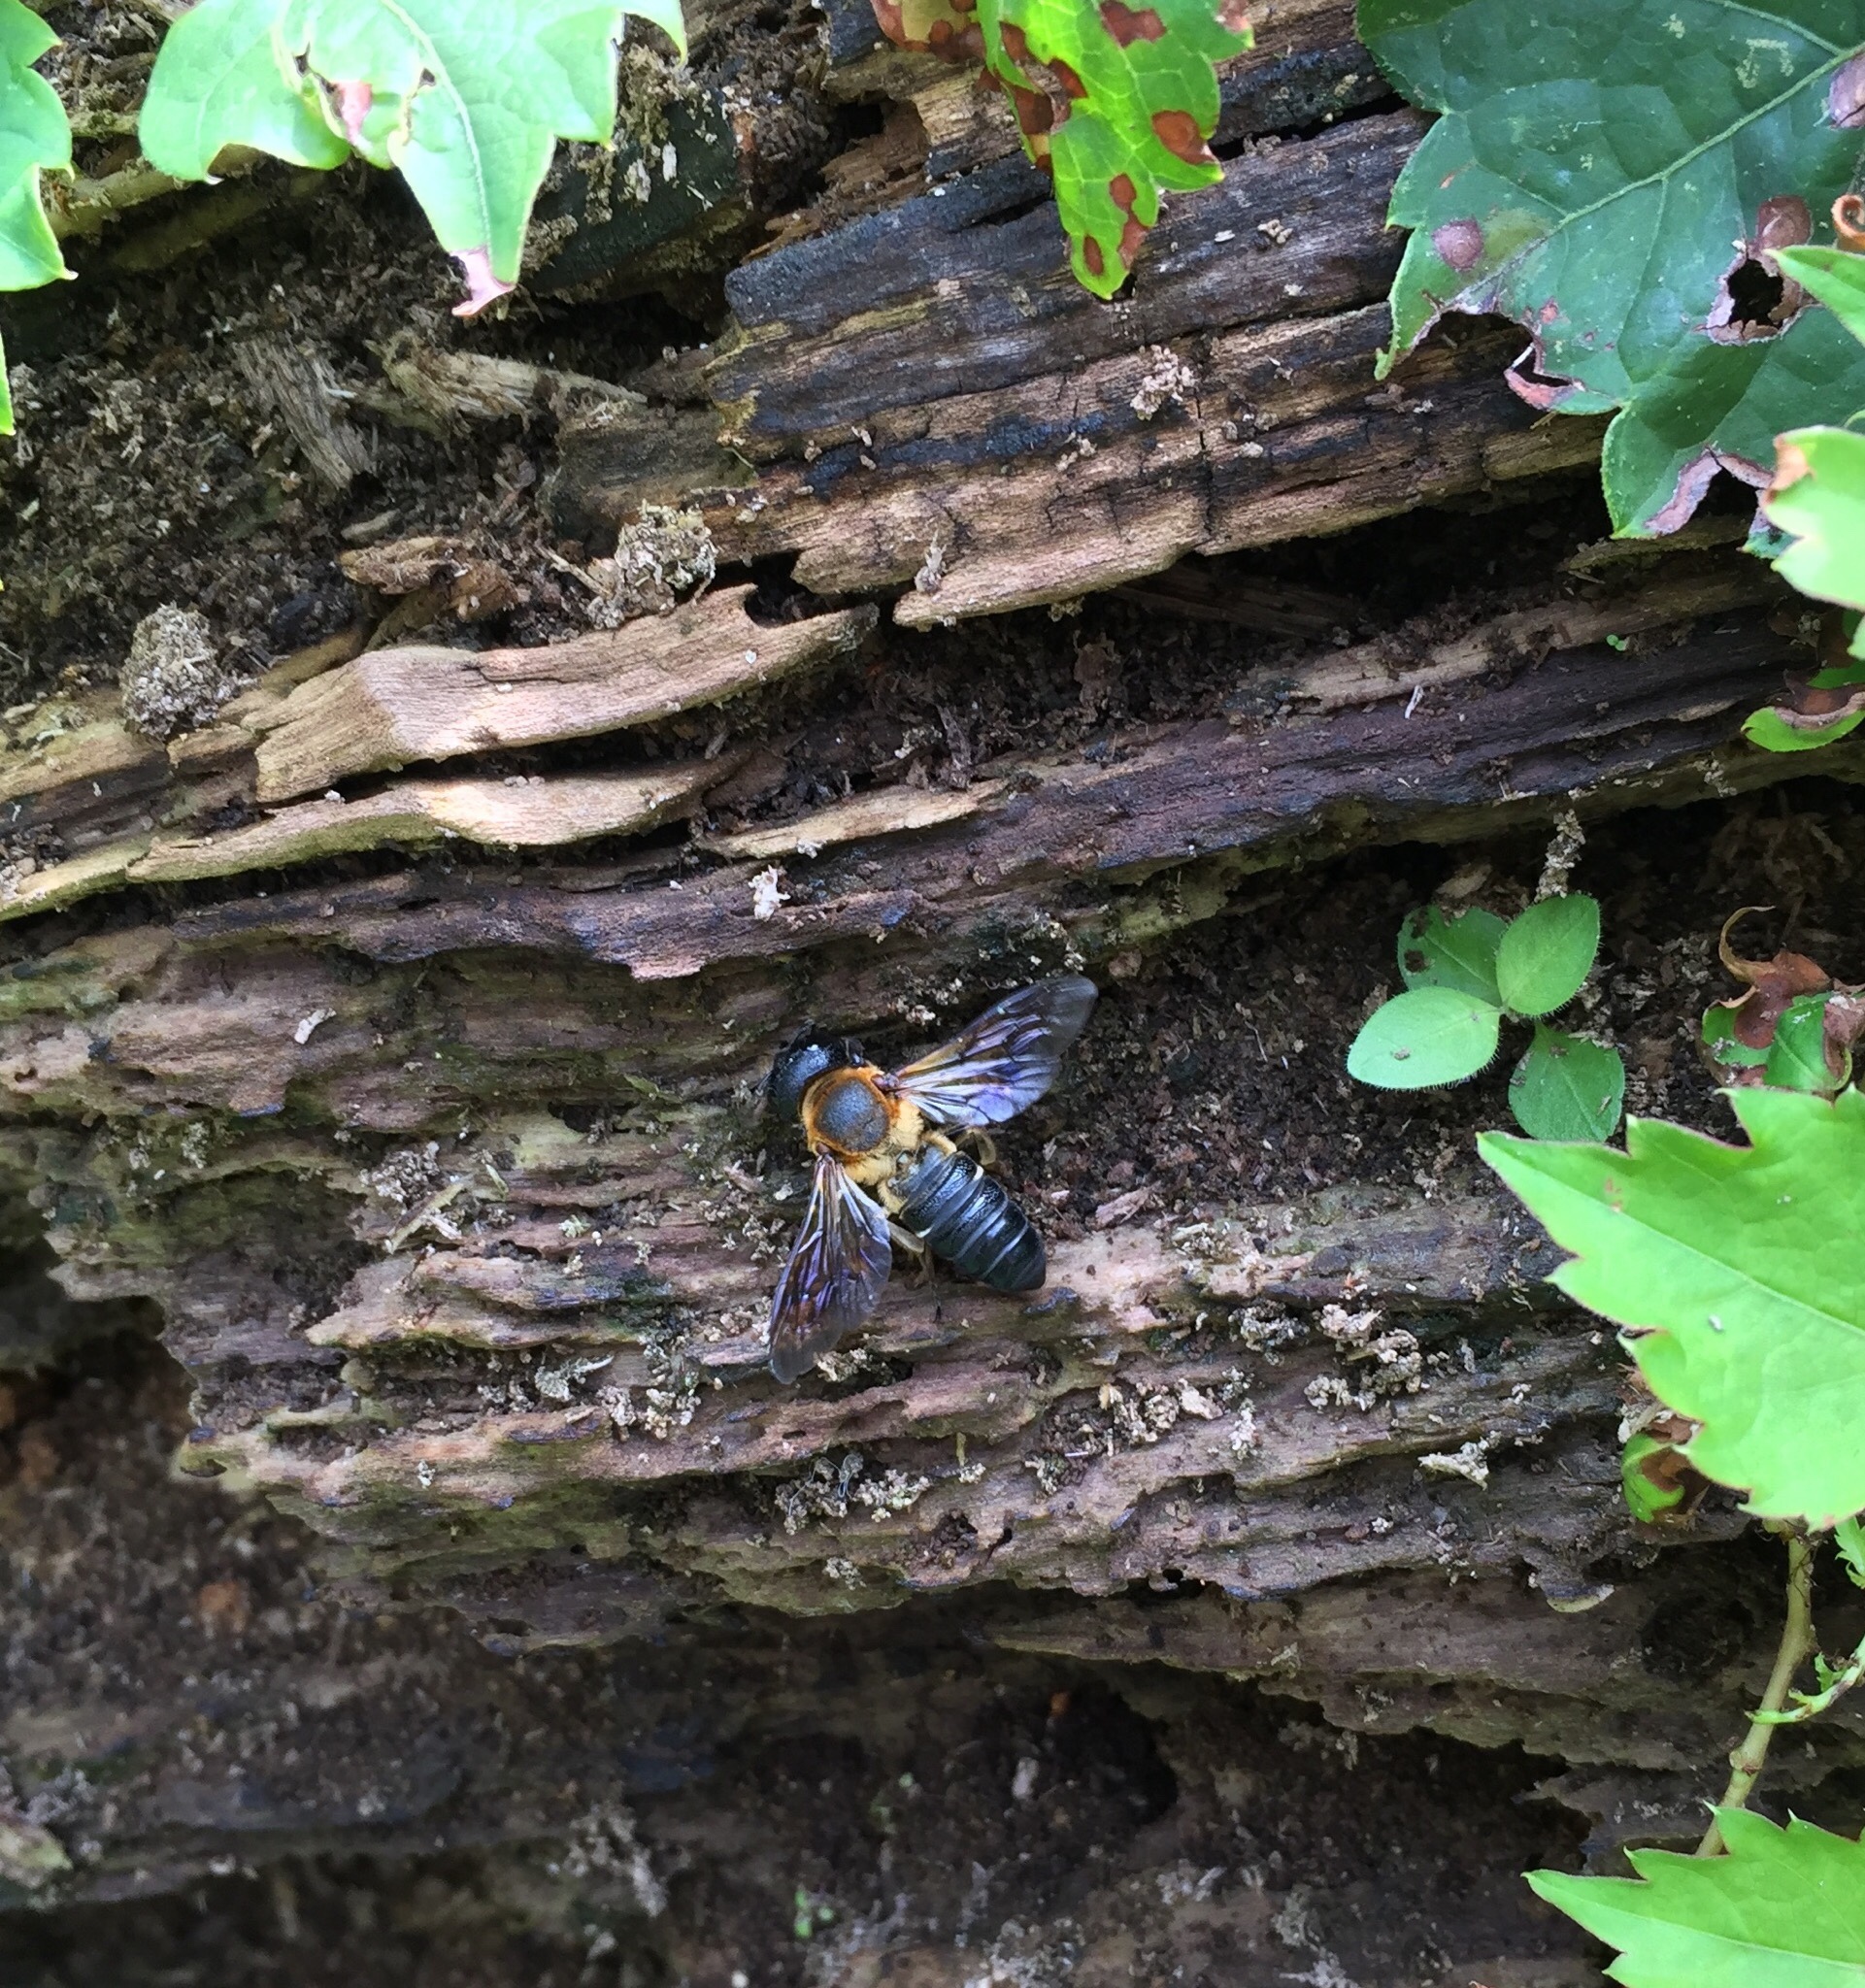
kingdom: Animalia
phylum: Arthropoda
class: Insecta
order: Hymenoptera
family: Megachilidae
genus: Megachile
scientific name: Megachile sculpturalis
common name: Sculptured resin bee
